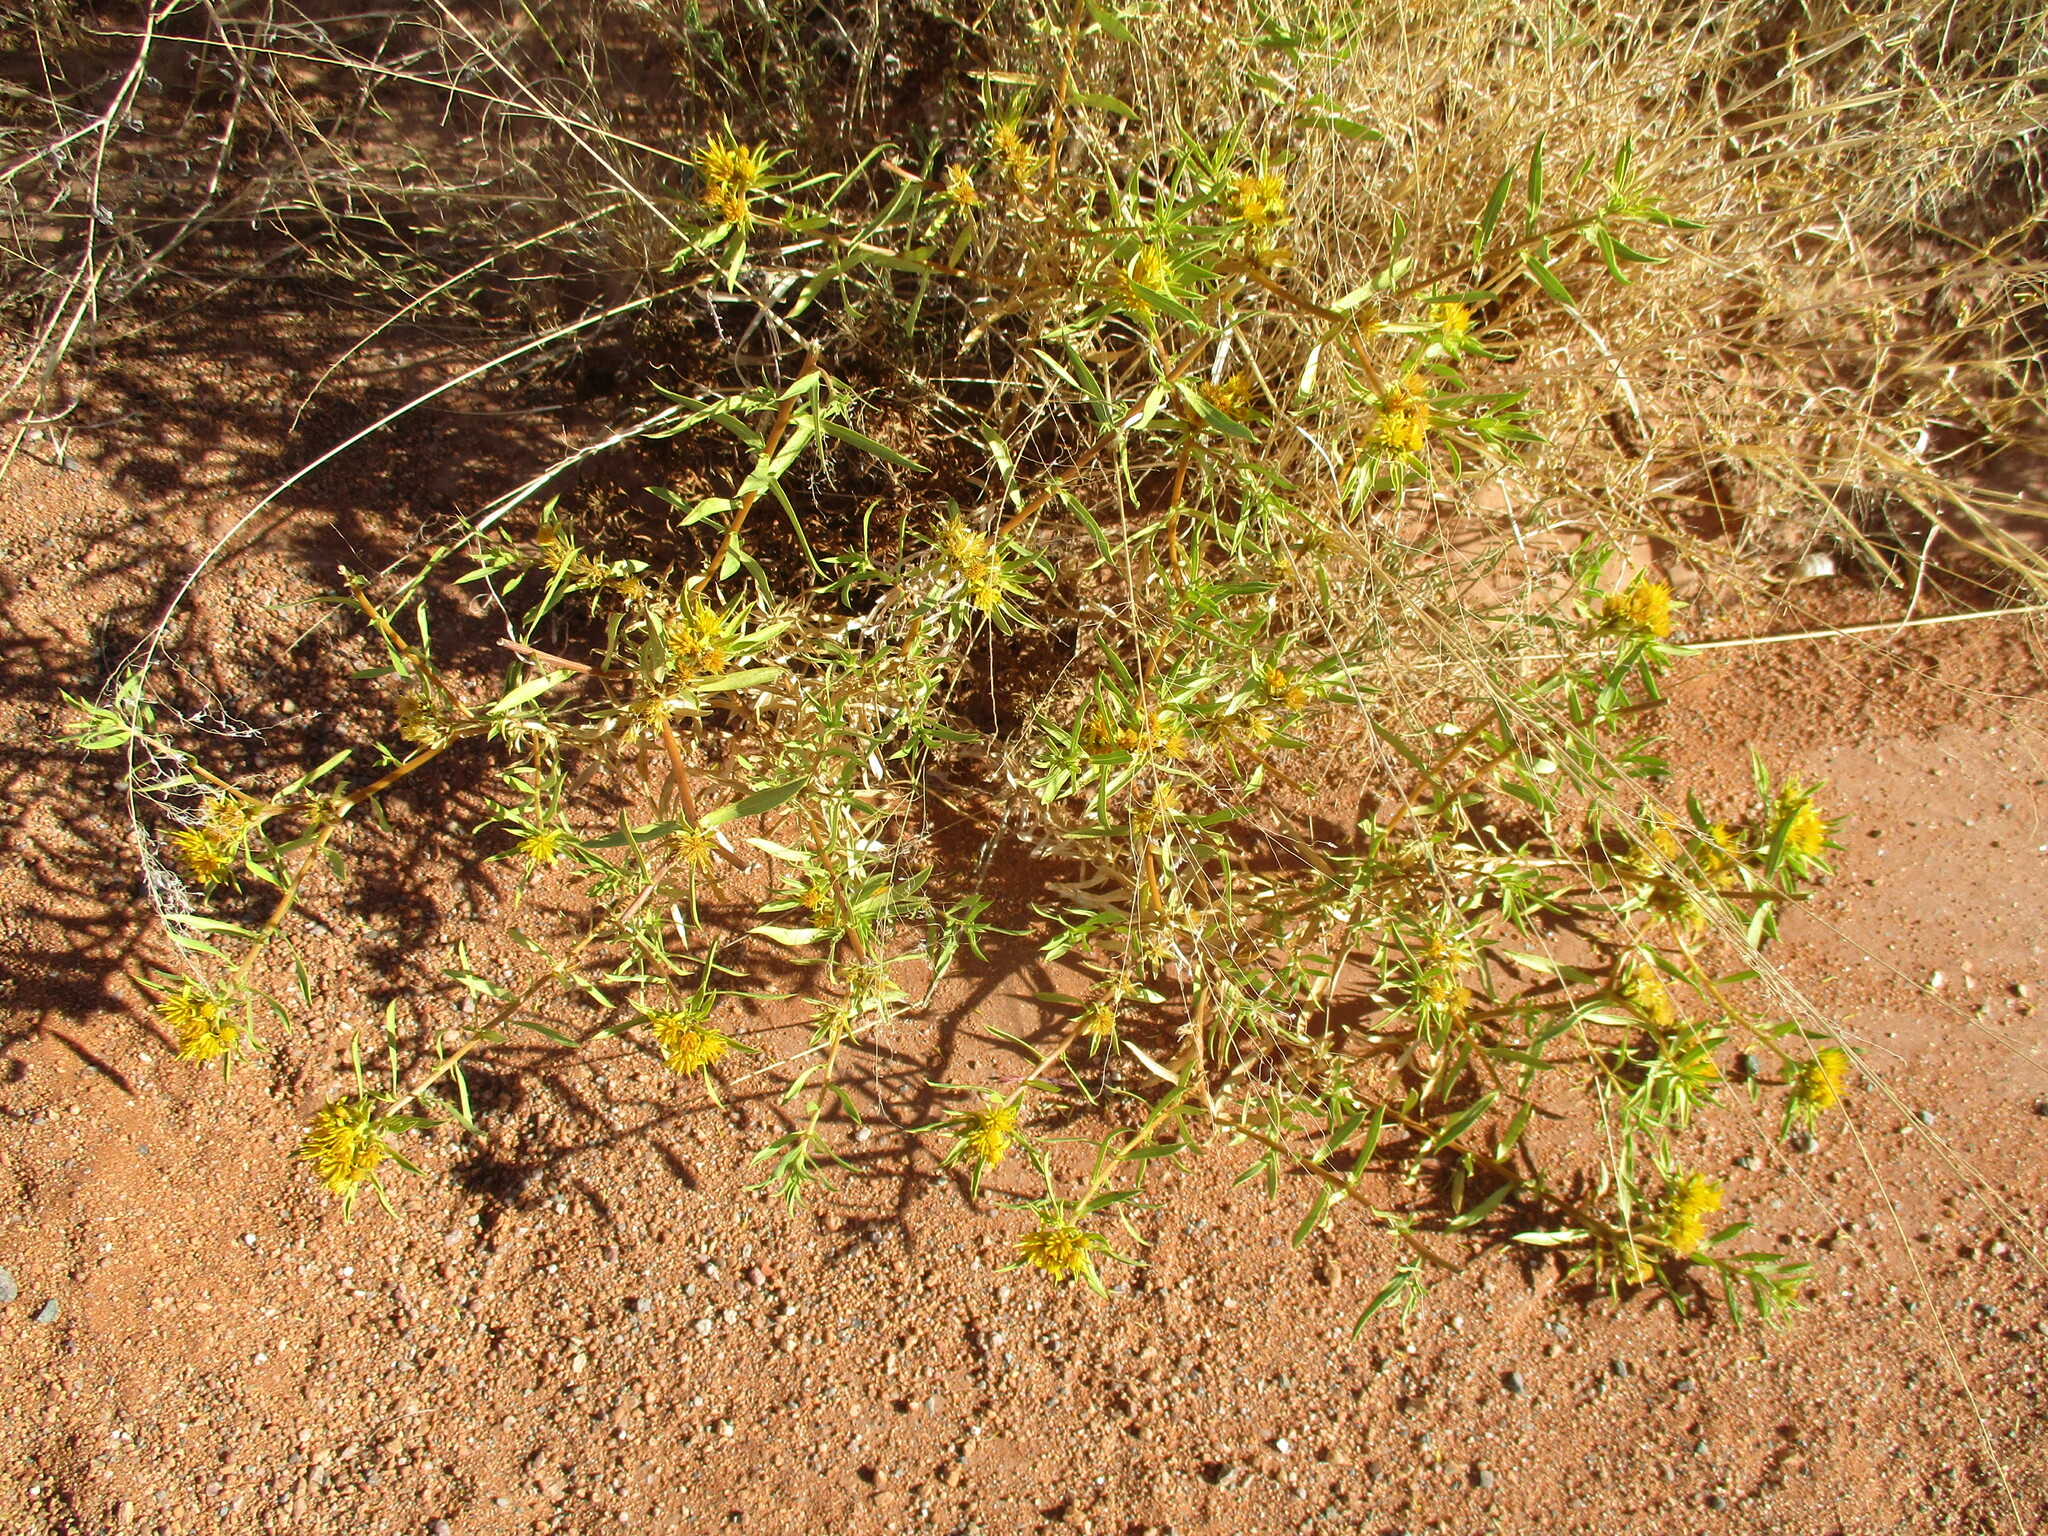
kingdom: Plantae
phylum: Tracheophyta
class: Magnoliopsida
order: Asterales
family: Asteraceae
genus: Geigeria
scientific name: Geigeria pectidea
